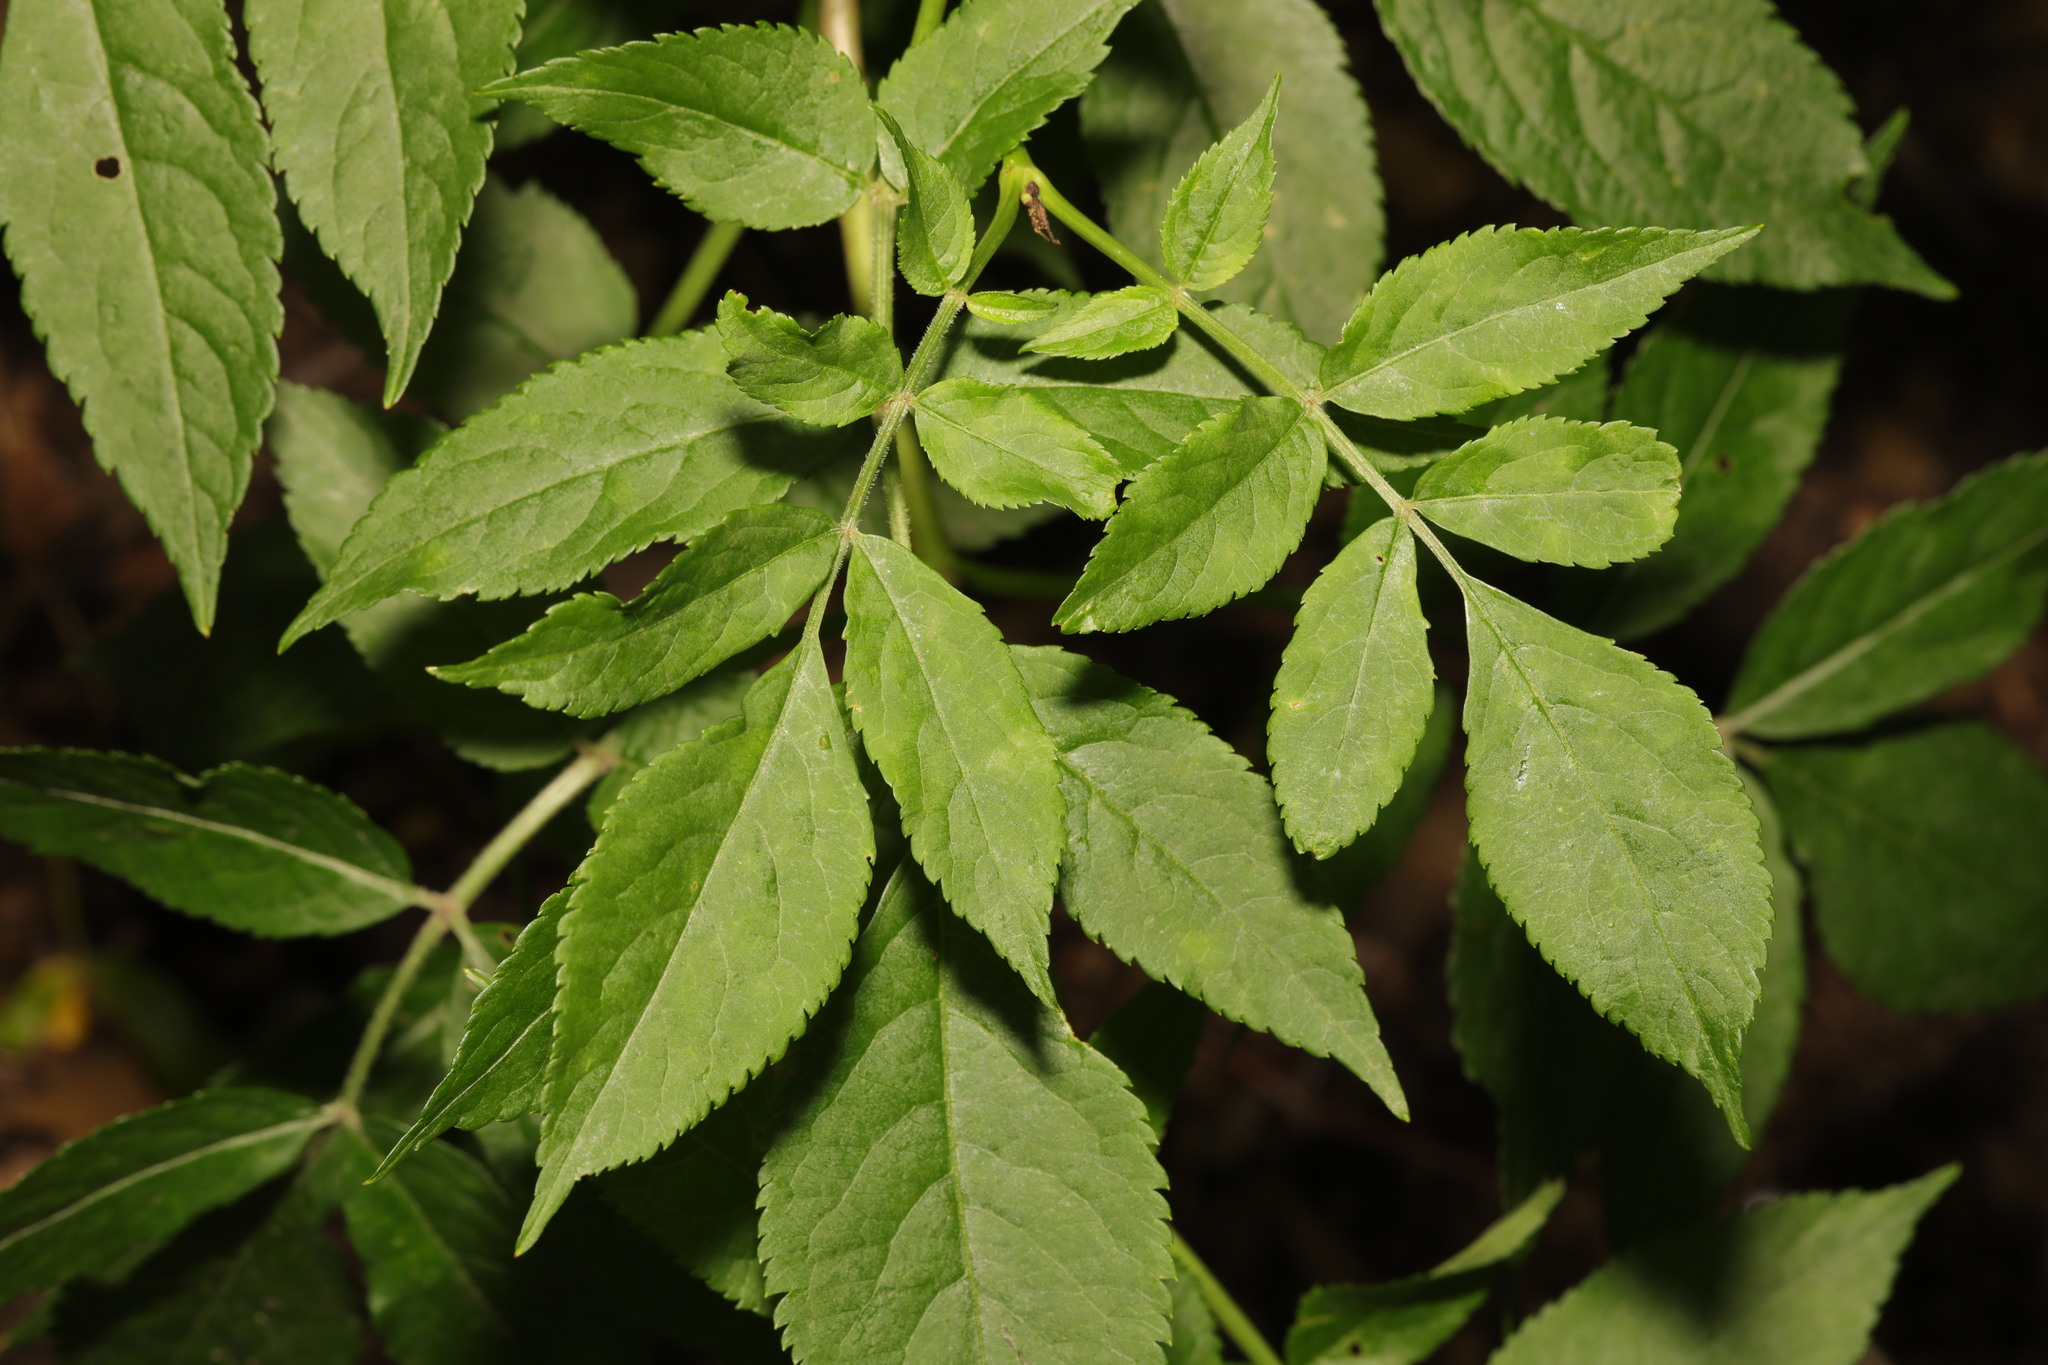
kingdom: Plantae
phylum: Tracheophyta
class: Magnoliopsida
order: Dipsacales
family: Viburnaceae
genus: Sambucus
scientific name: Sambucus nigra
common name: Elder
